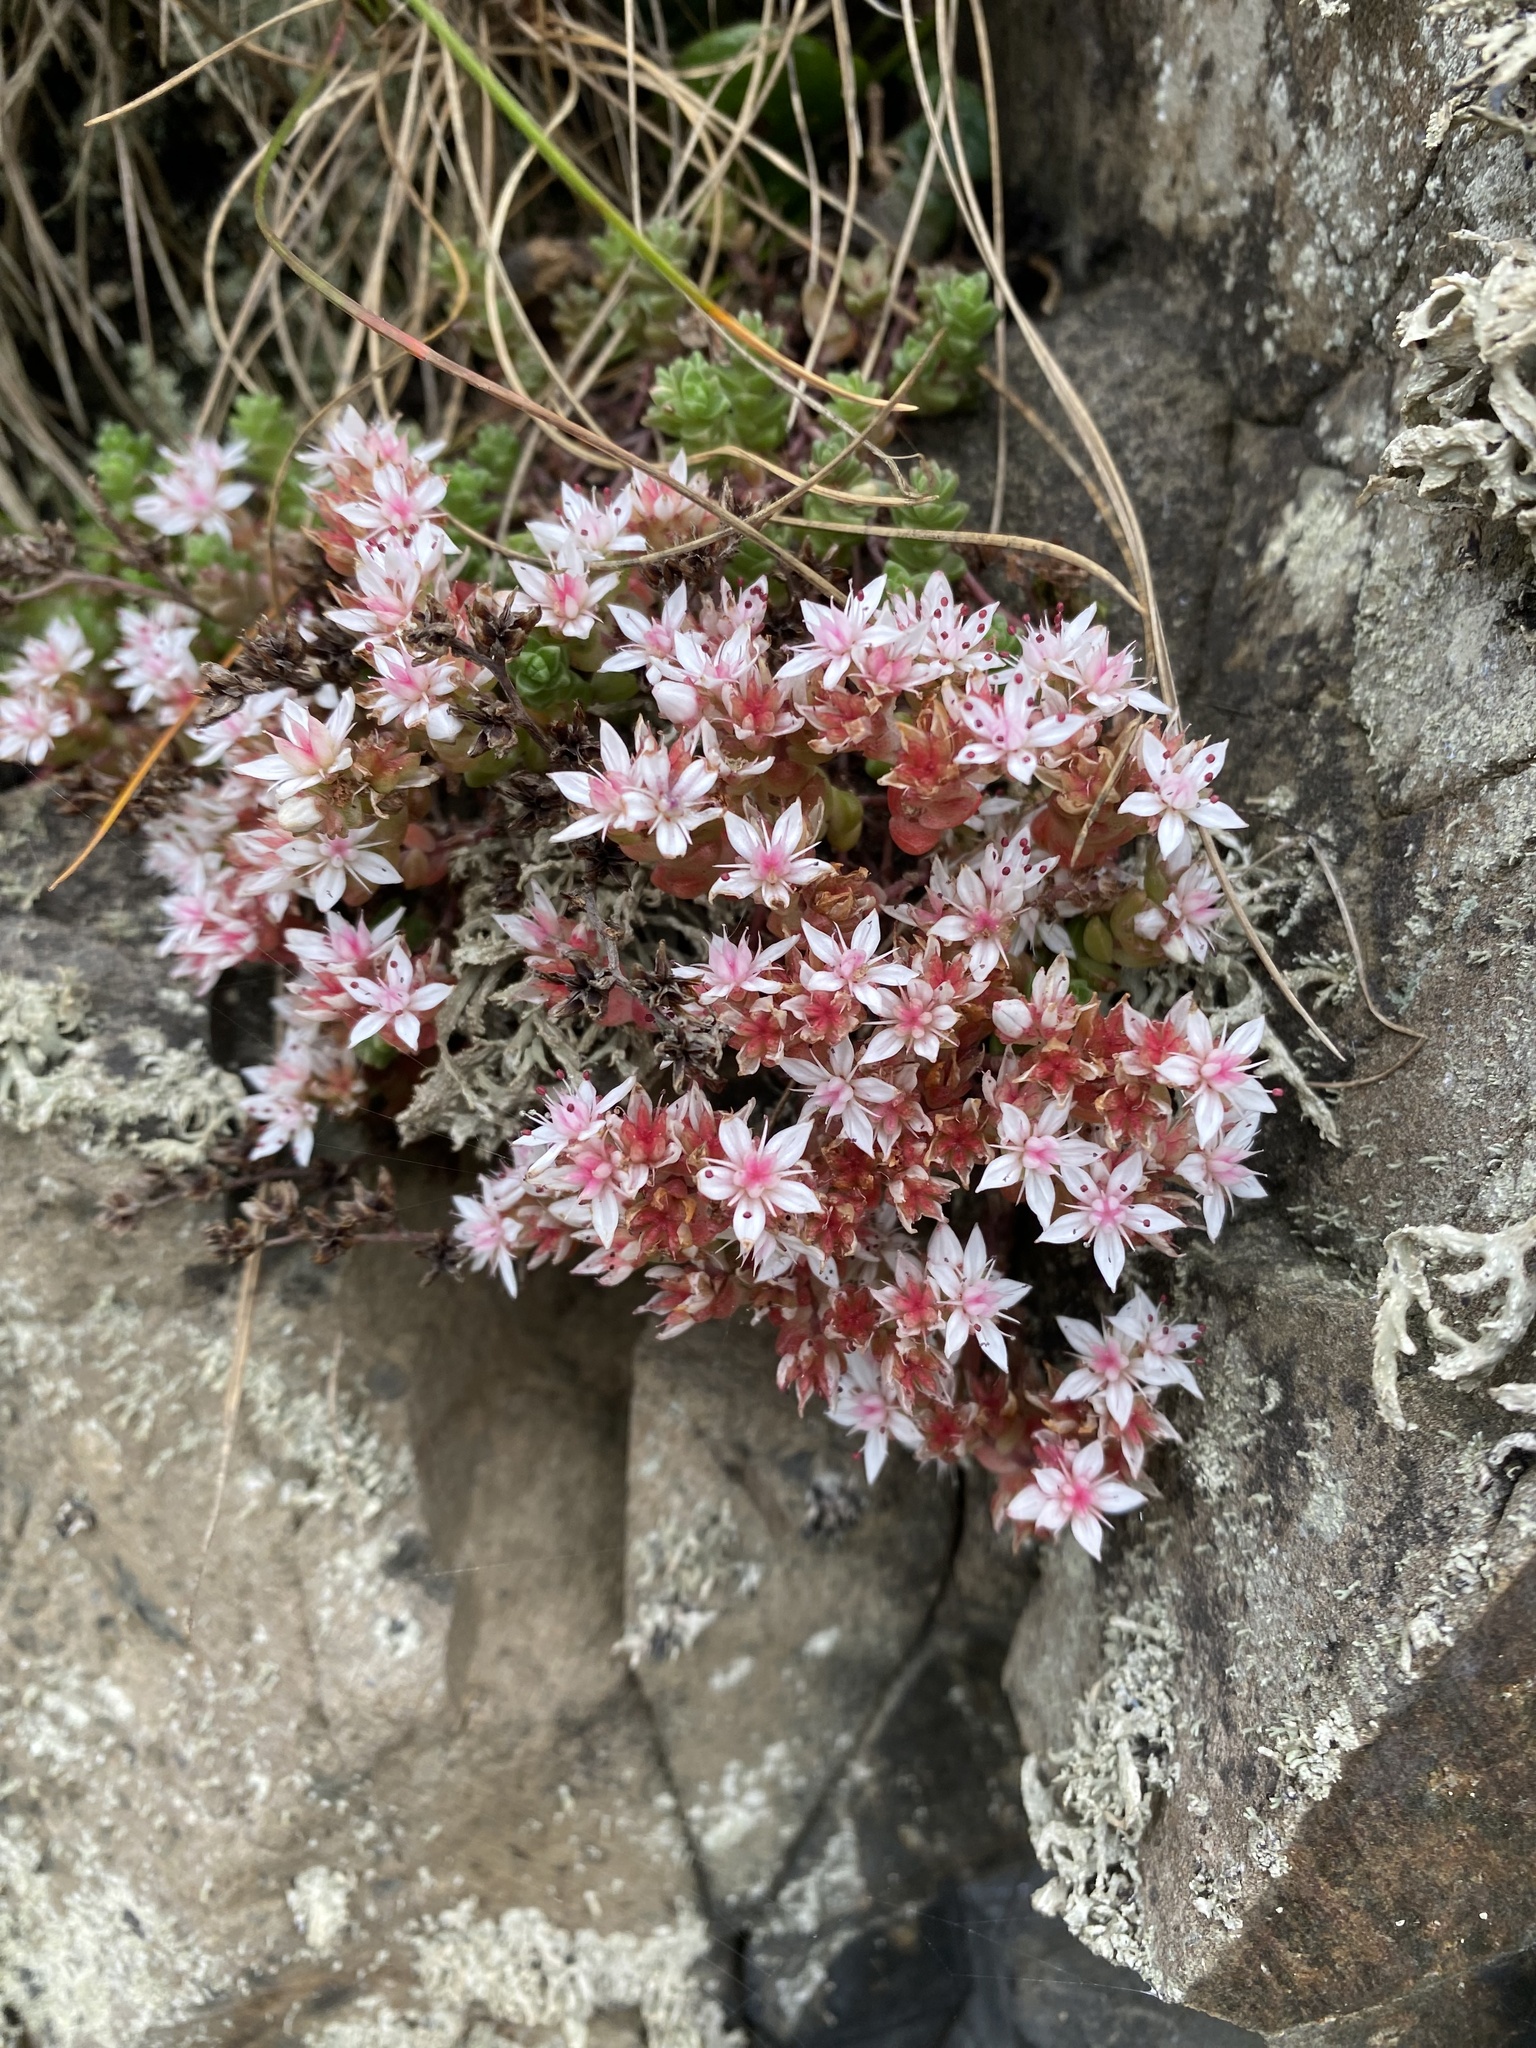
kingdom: Plantae
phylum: Tracheophyta
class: Magnoliopsida
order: Saxifragales
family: Crassulaceae
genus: Sedum
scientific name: Sedum anglicum
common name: English stonecrop
